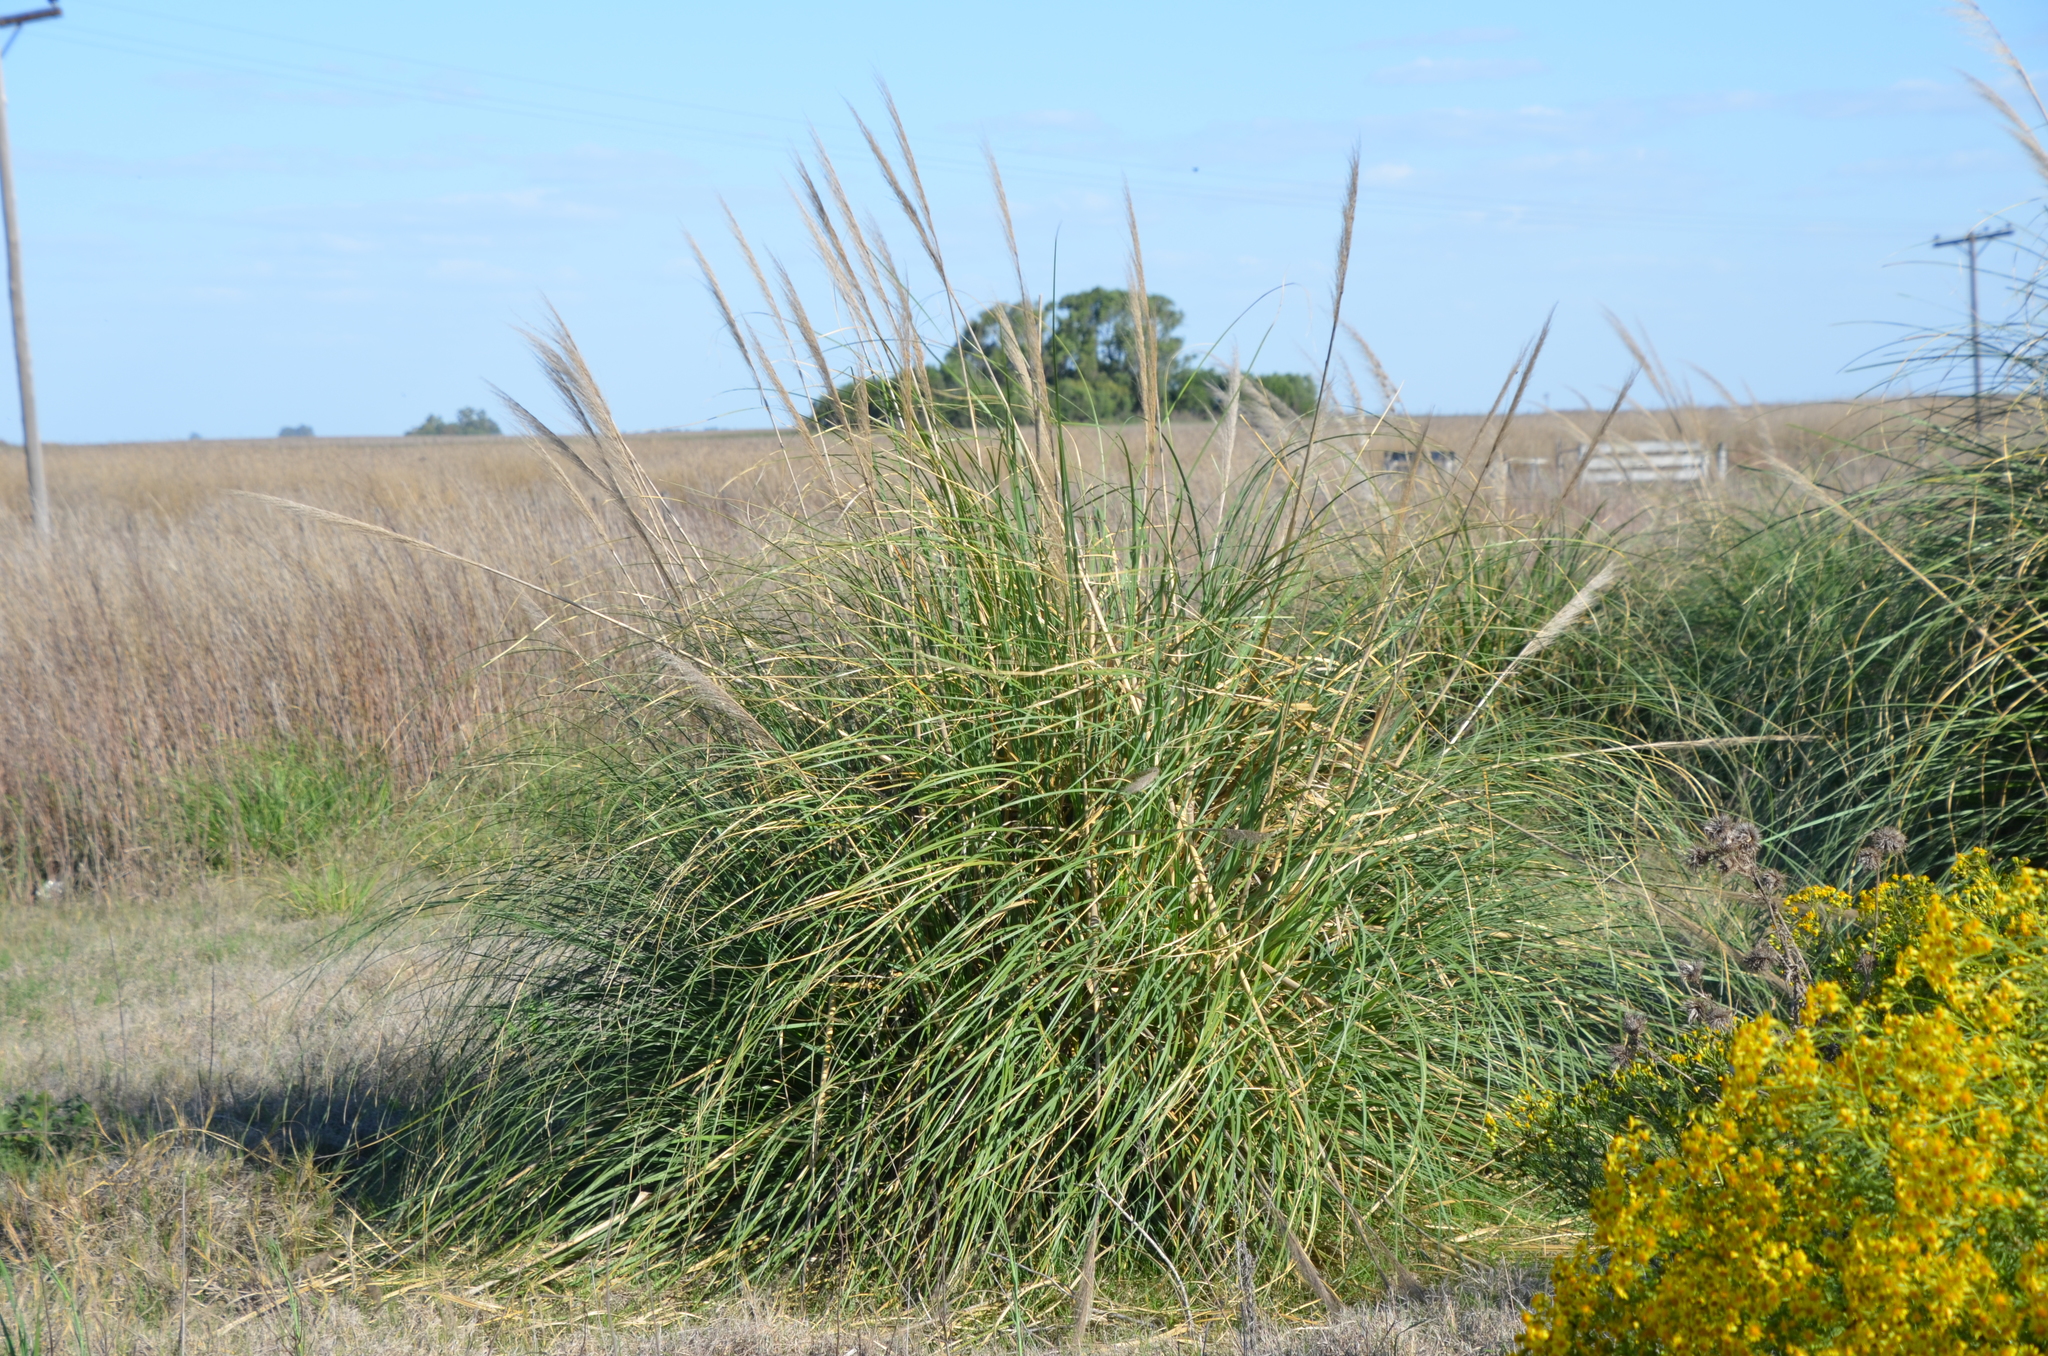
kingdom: Plantae
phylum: Tracheophyta
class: Liliopsida
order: Poales
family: Poaceae
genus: Cortaderia
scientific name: Cortaderia selloana
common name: Uruguayan pampas grass
